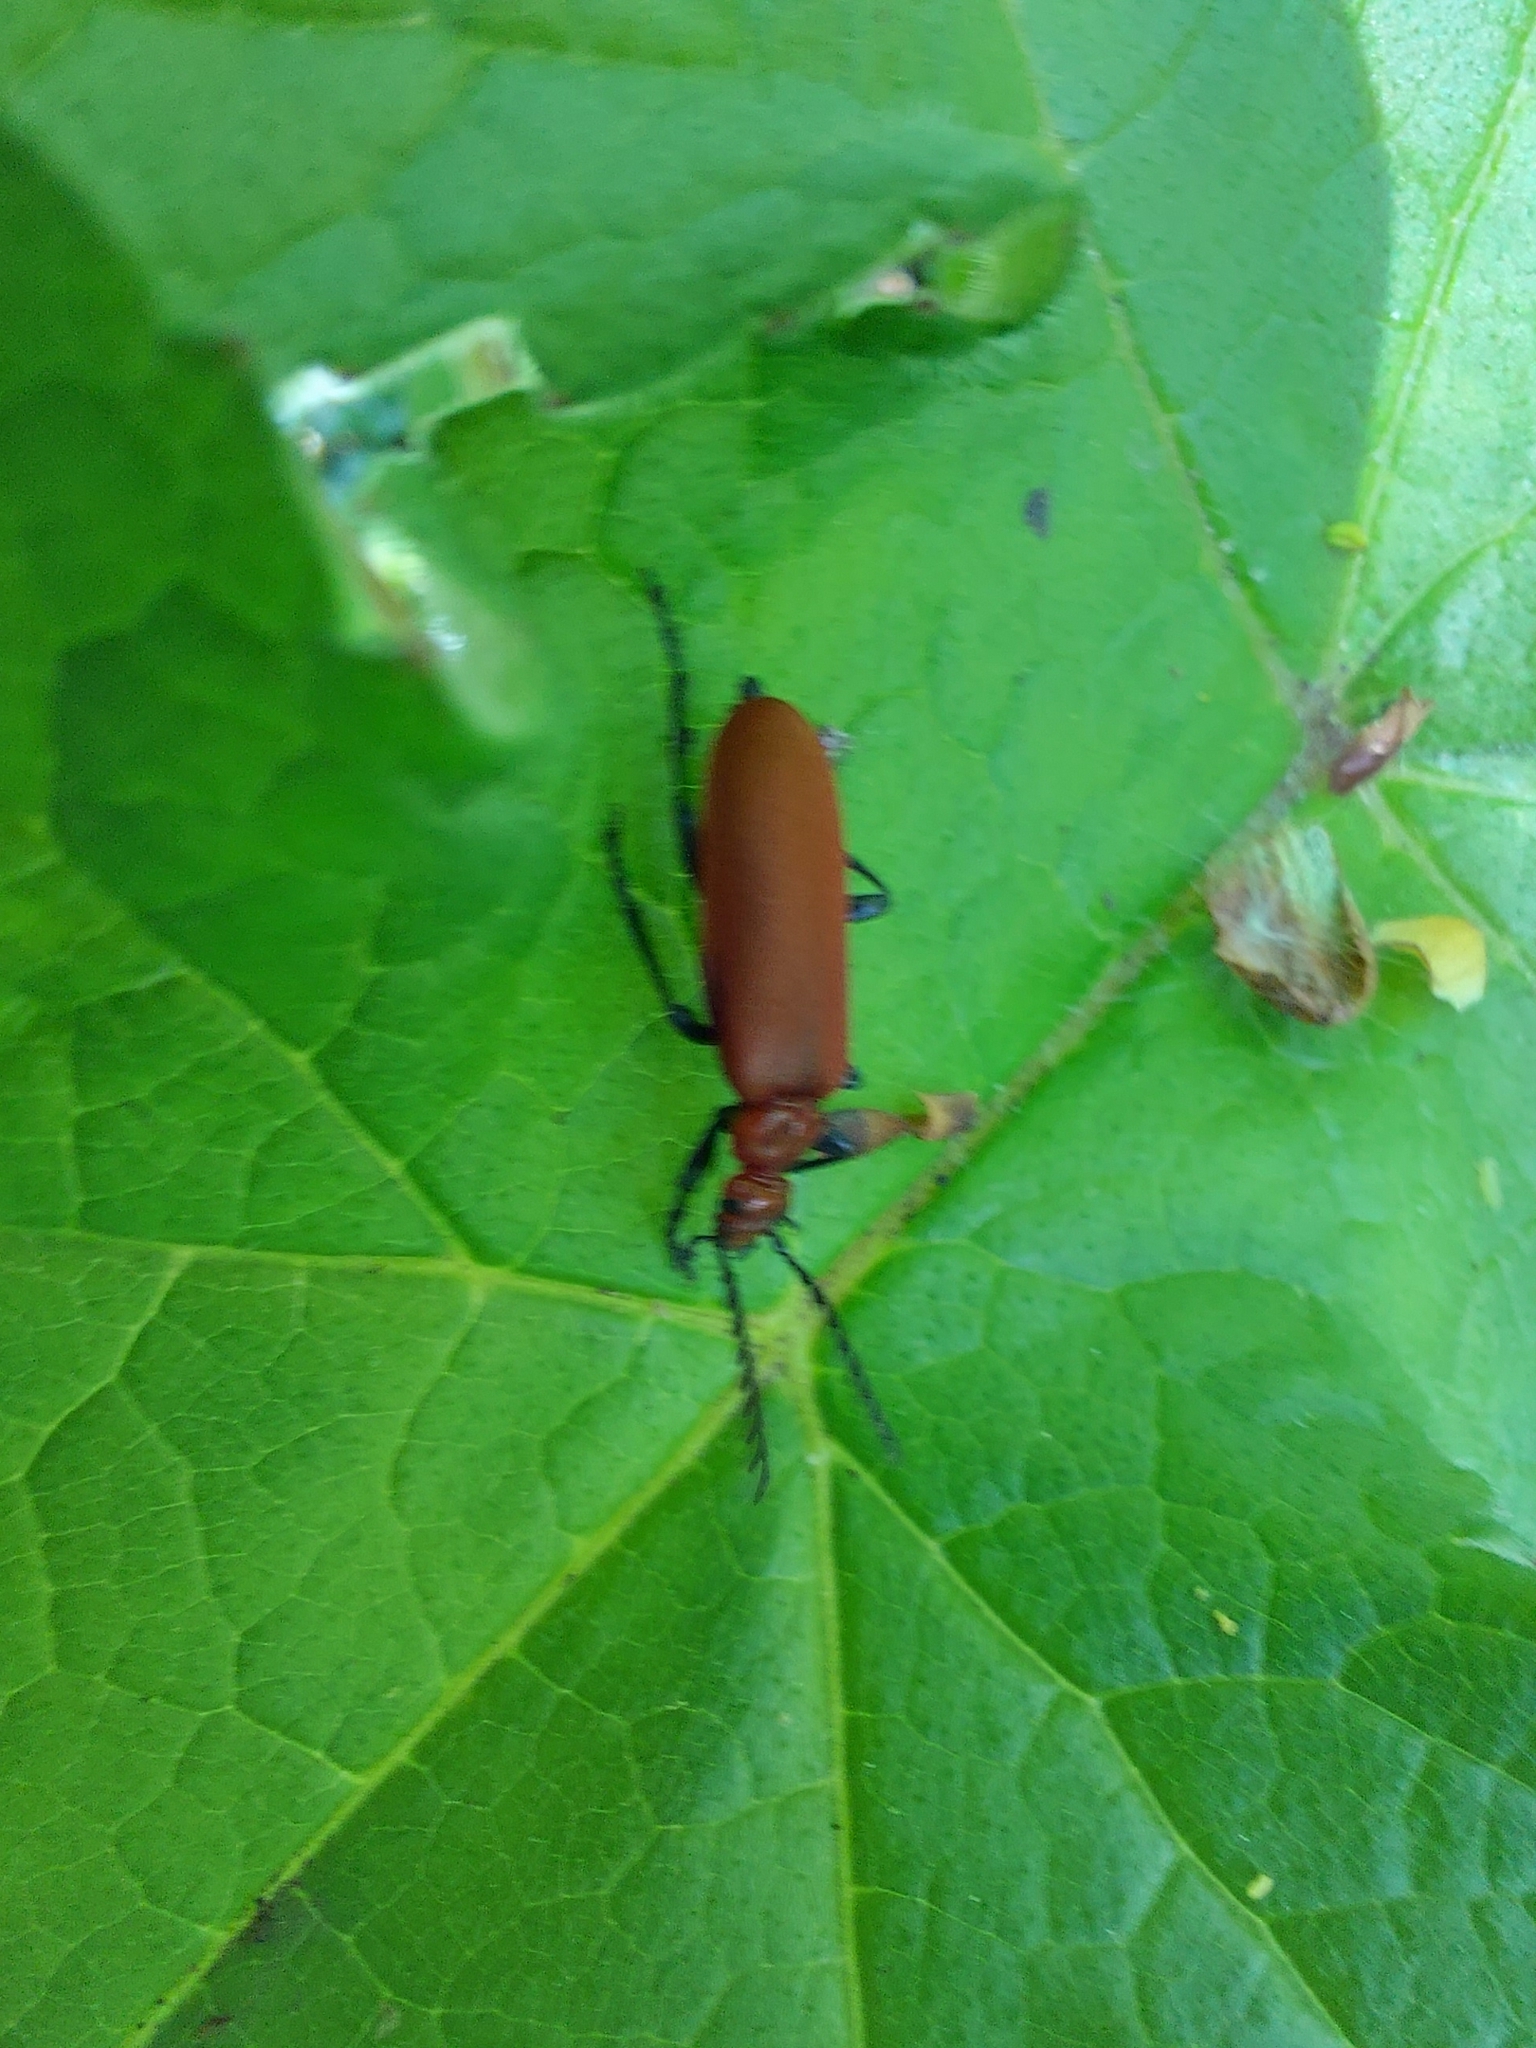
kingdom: Animalia
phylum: Arthropoda
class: Insecta
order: Coleoptera
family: Pyrochroidae
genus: Pyrochroa
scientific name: Pyrochroa serraticornis
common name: Red-headed cardinal beetle
